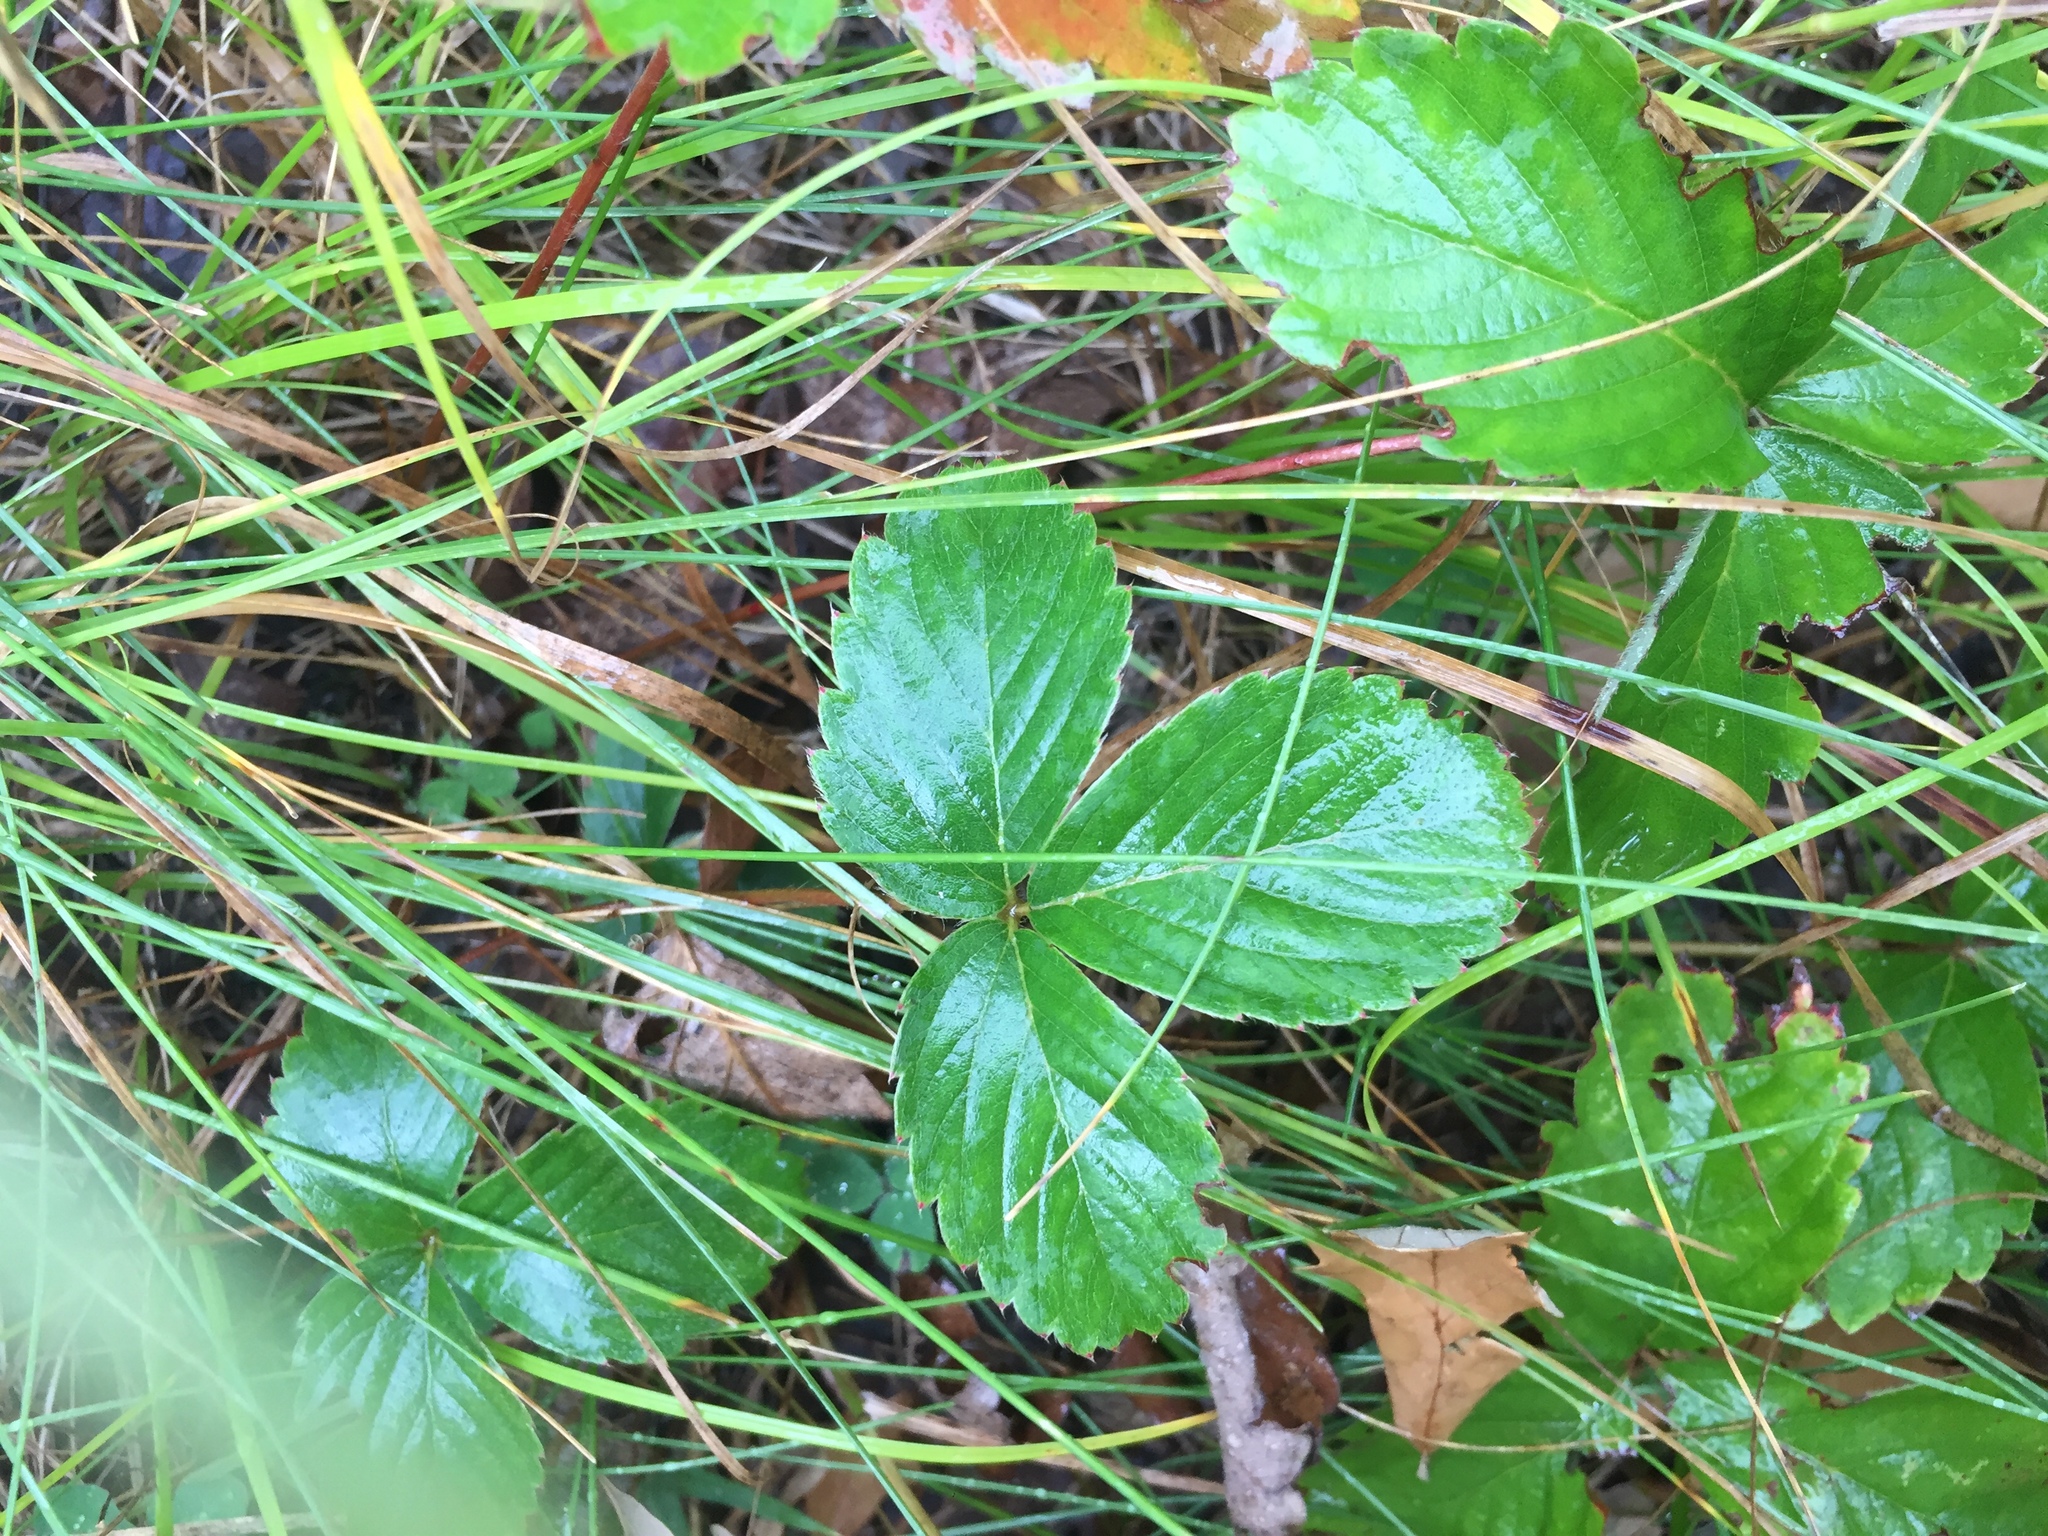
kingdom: Plantae
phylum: Tracheophyta
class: Magnoliopsida
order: Rosales
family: Rosaceae
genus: Fragaria
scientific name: Fragaria virginiana
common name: Thickleaved wild strawberry
